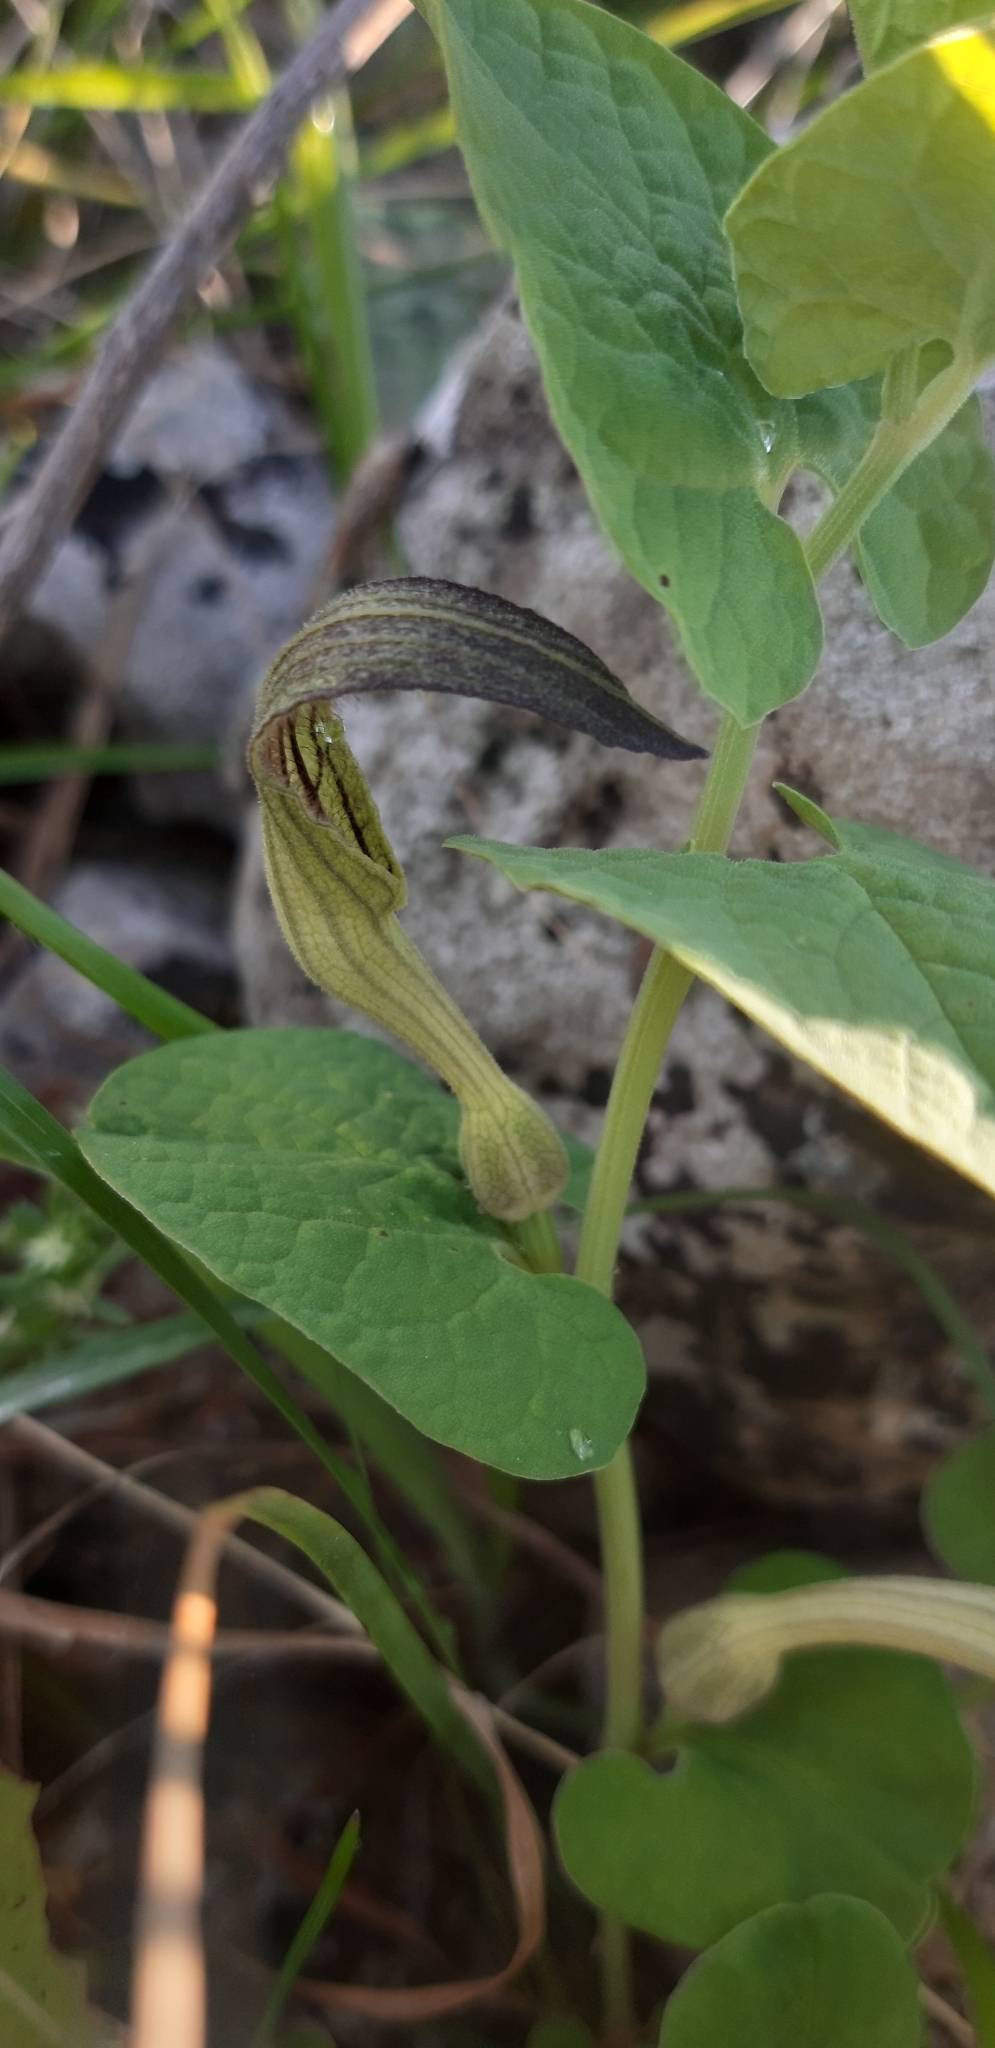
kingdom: Plantae
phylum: Tracheophyta
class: Magnoliopsida
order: Piperales
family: Aristolochiaceae
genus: Aristolochia
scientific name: Aristolochia clusii
